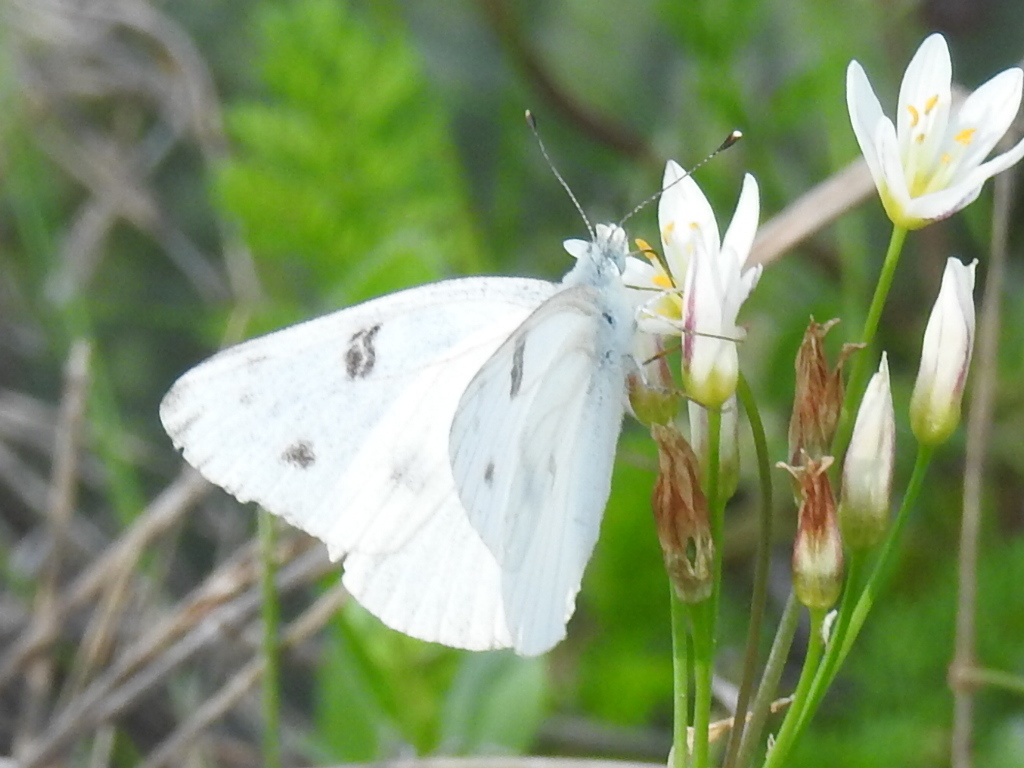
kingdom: Animalia
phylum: Arthropoda
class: Insecta
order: Lepidoptera
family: Pieridae
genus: Pontia
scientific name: Pontia protodice
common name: Checkered white
